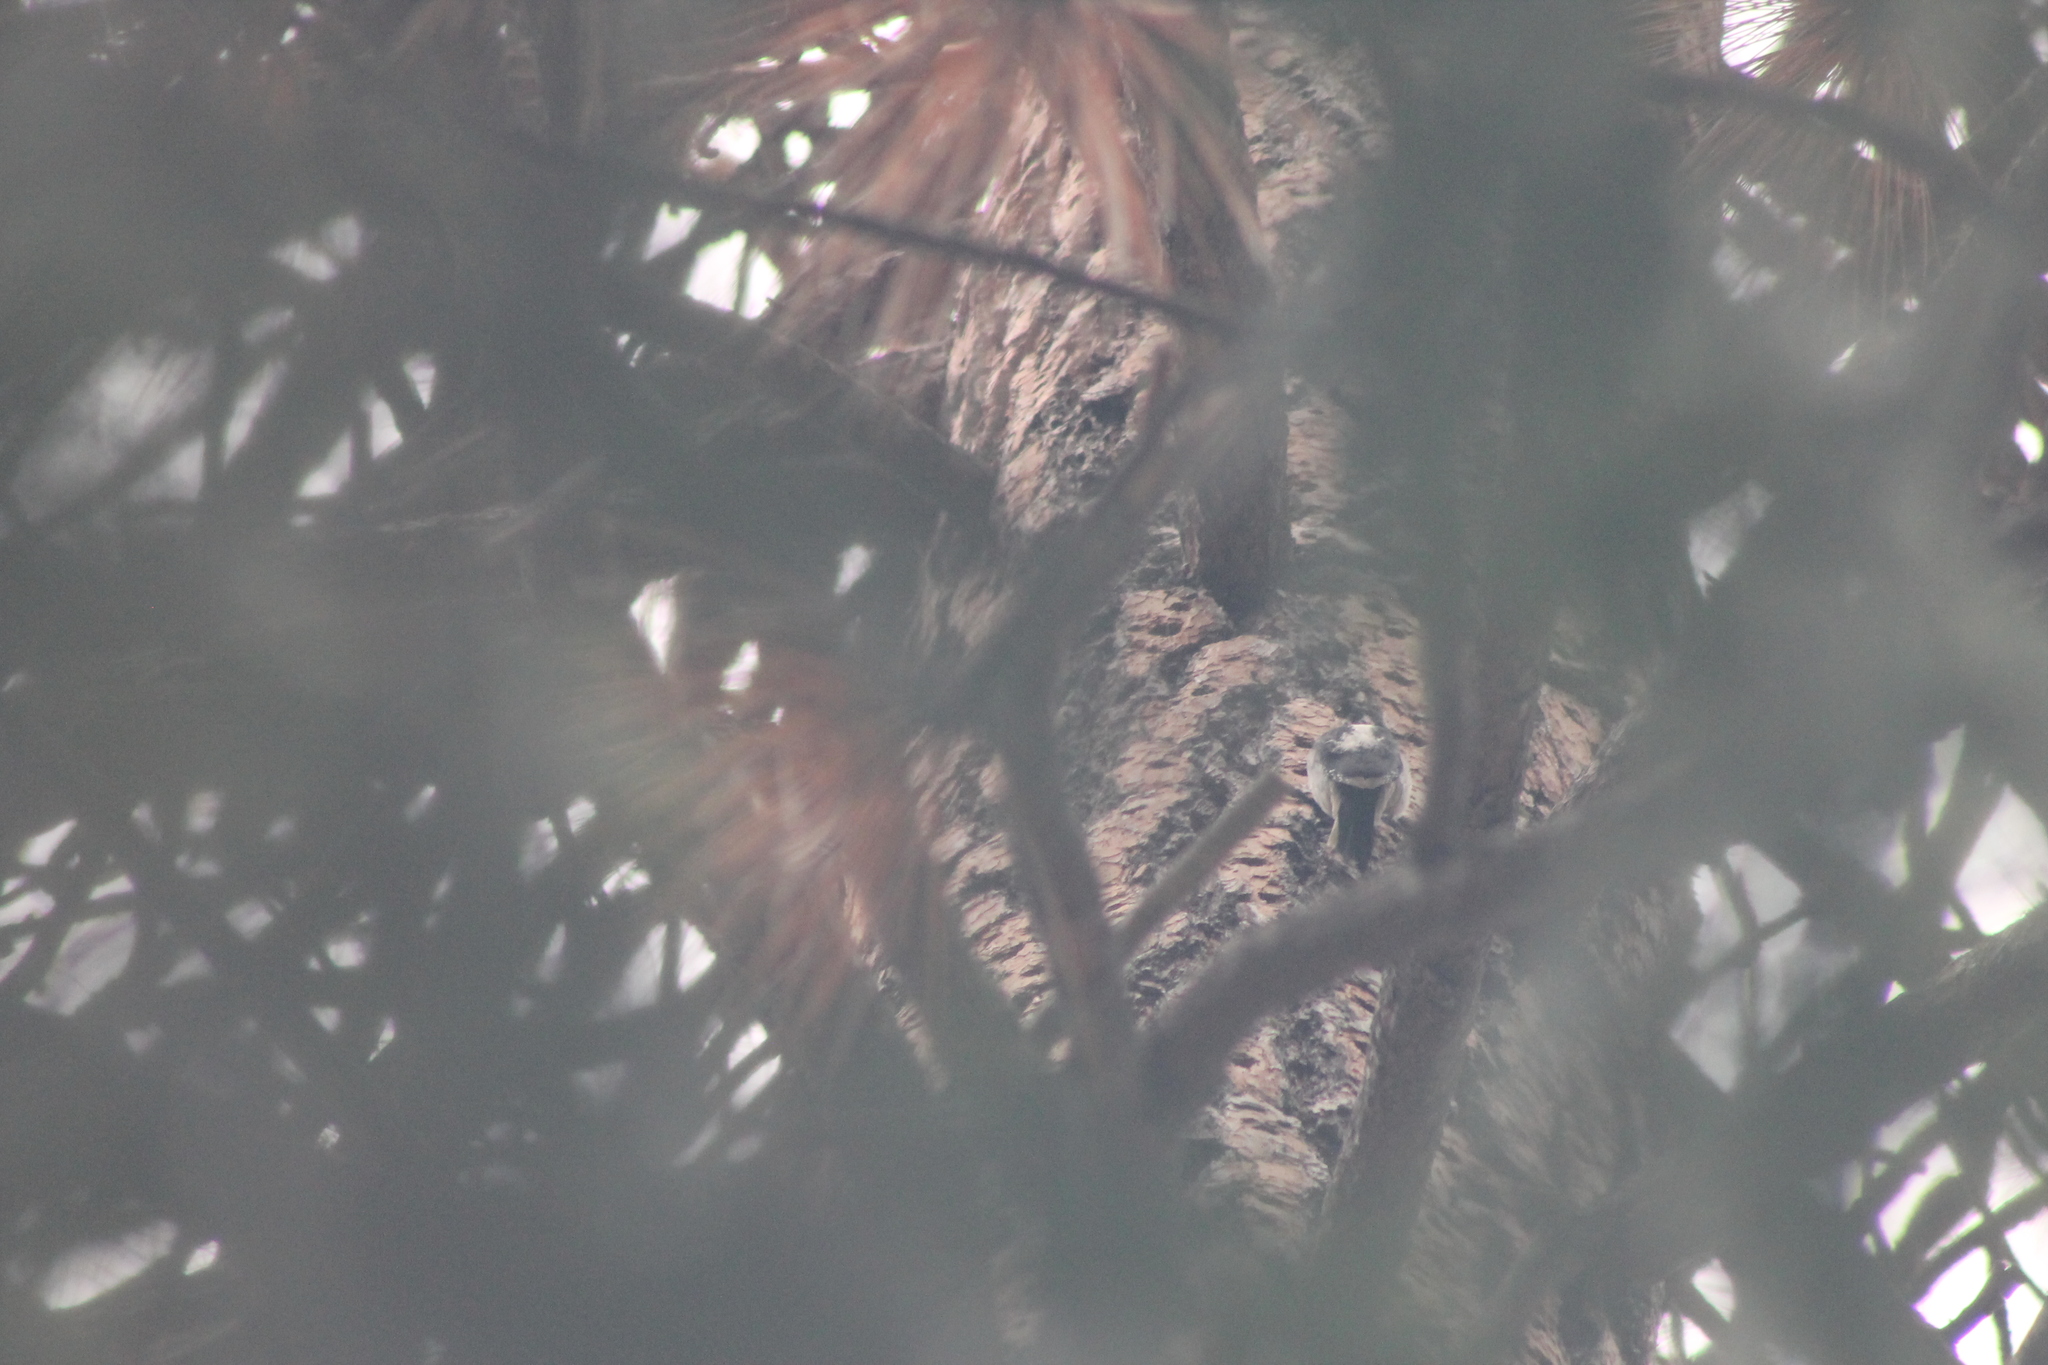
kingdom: Animalia
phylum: Chordata
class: Aves
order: Piciformes
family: Picidae
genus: Leuconotopicus
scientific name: Leuconotopicus villosus
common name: Hairy woodpecker
